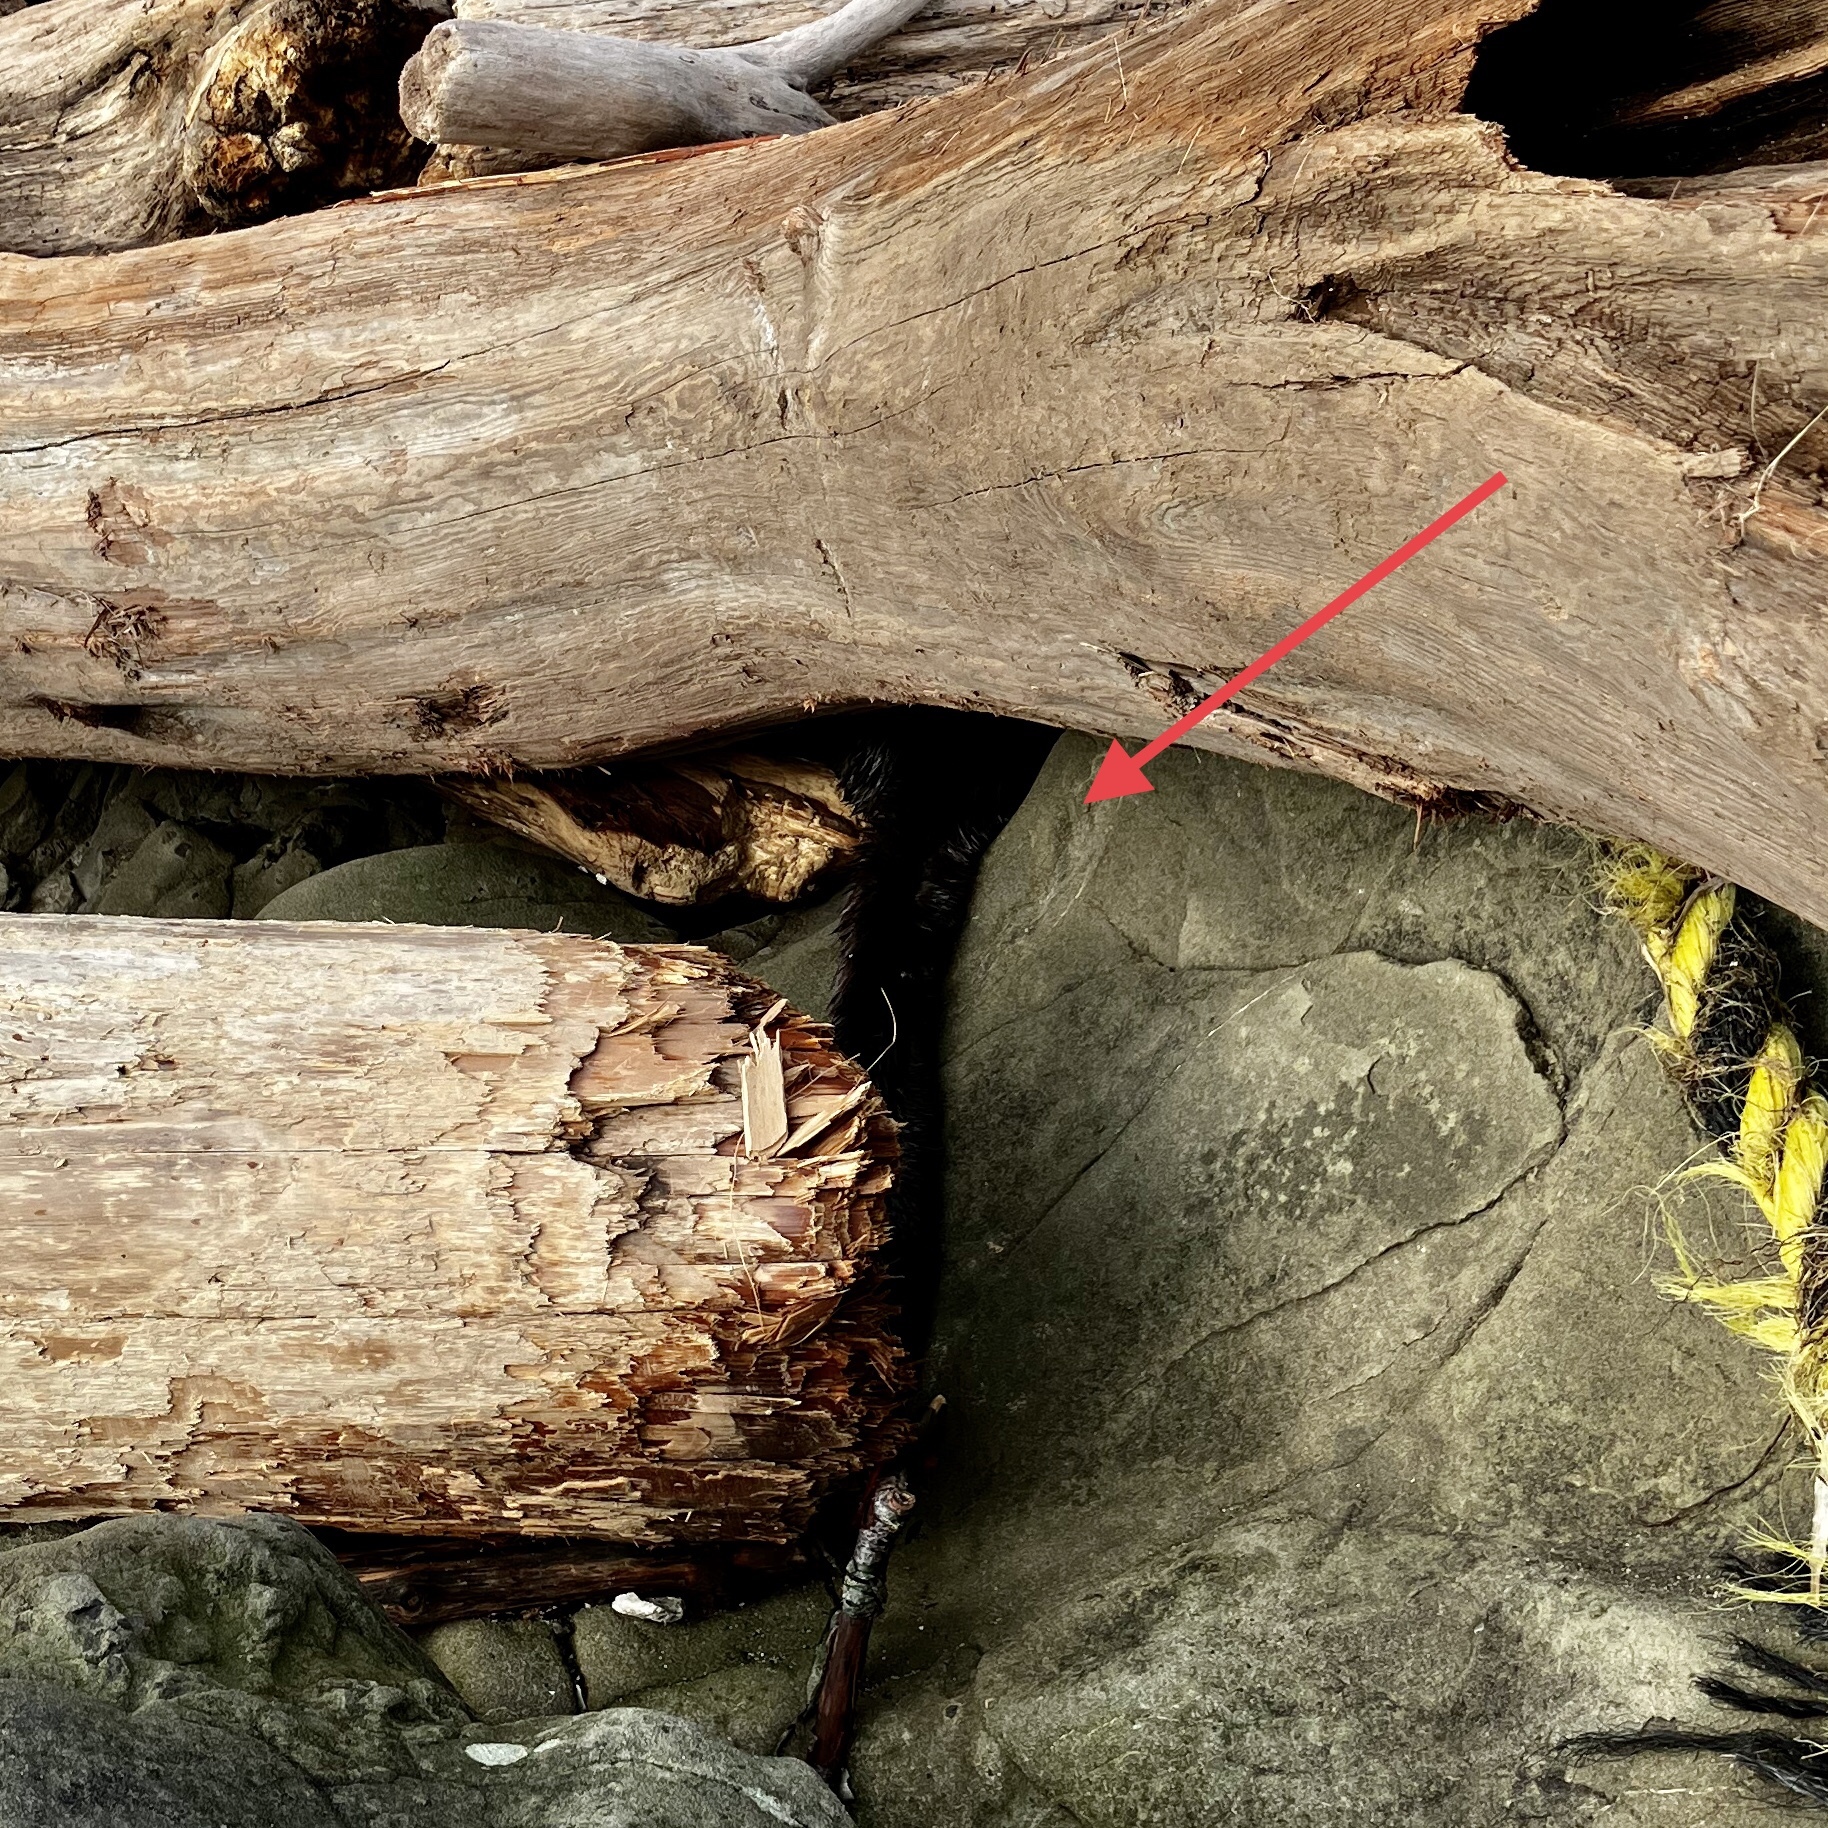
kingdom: Animalia
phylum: Chordata
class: Mammalia
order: Carnivora
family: Mustelidae
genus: Lontra
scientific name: Lontra canadensis
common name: North american river otter
